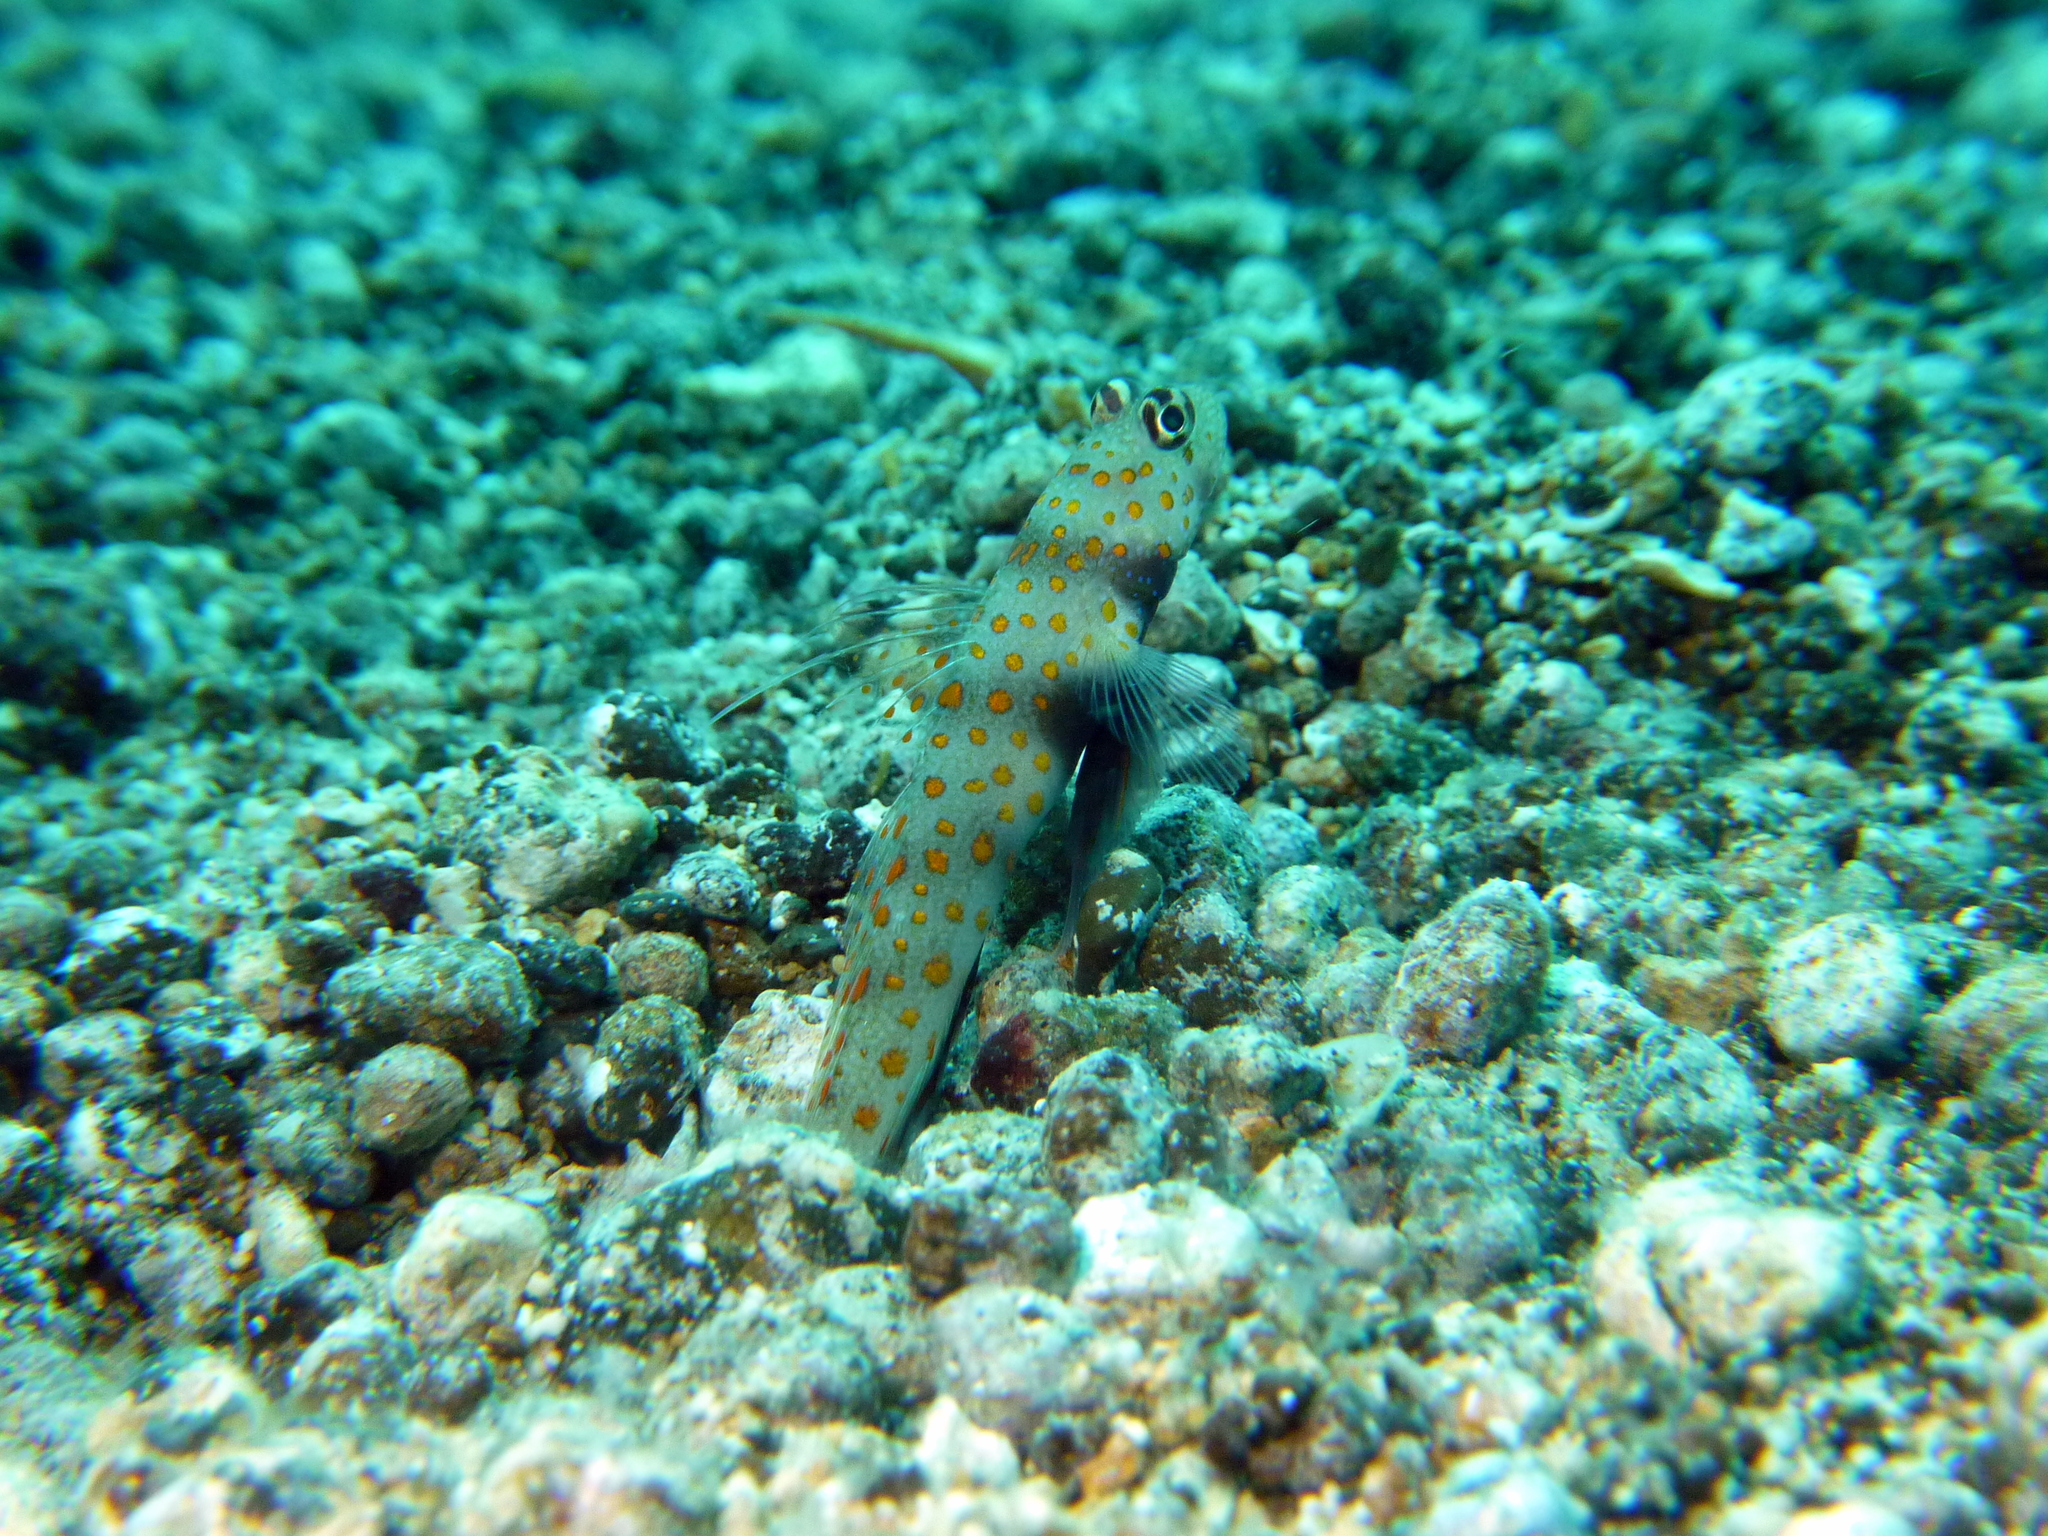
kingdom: Animalia
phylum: Chordata
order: Perciformes
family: Gobiidae
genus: Amblyeleotris
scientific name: Amblyeleotris guttata
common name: Black-chest shrimp-goby
